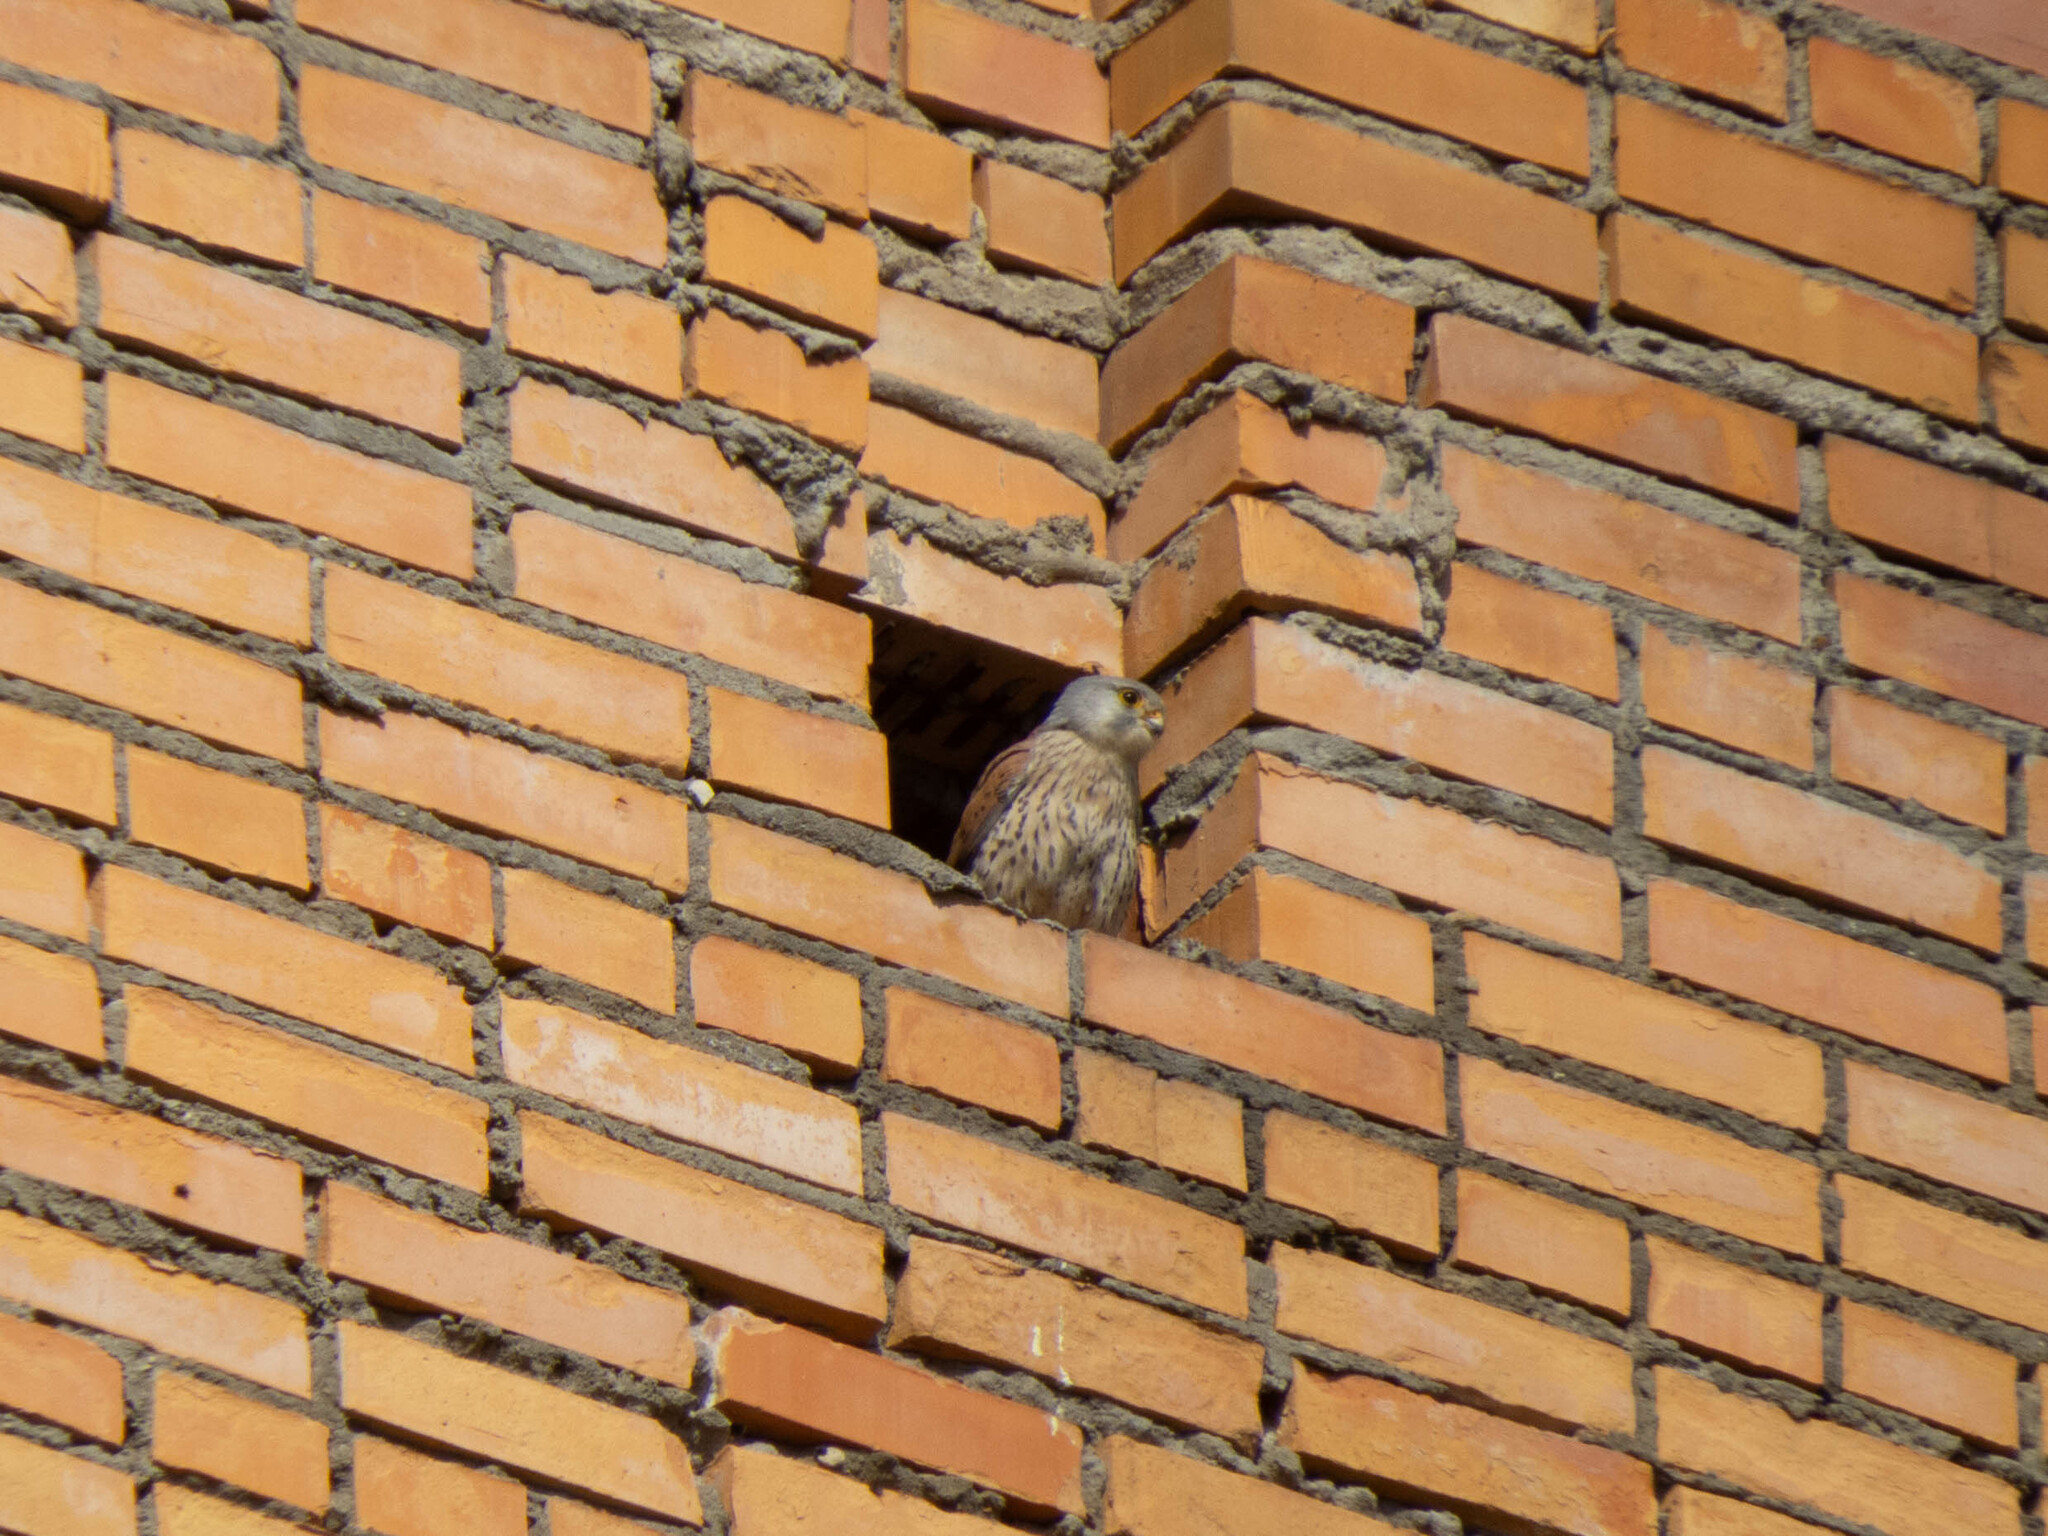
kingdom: Animalia
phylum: Chordata
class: Aves
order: Falconiformes
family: Falconidae
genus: Falco
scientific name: Falco tinnunculus
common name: Common kestrel
